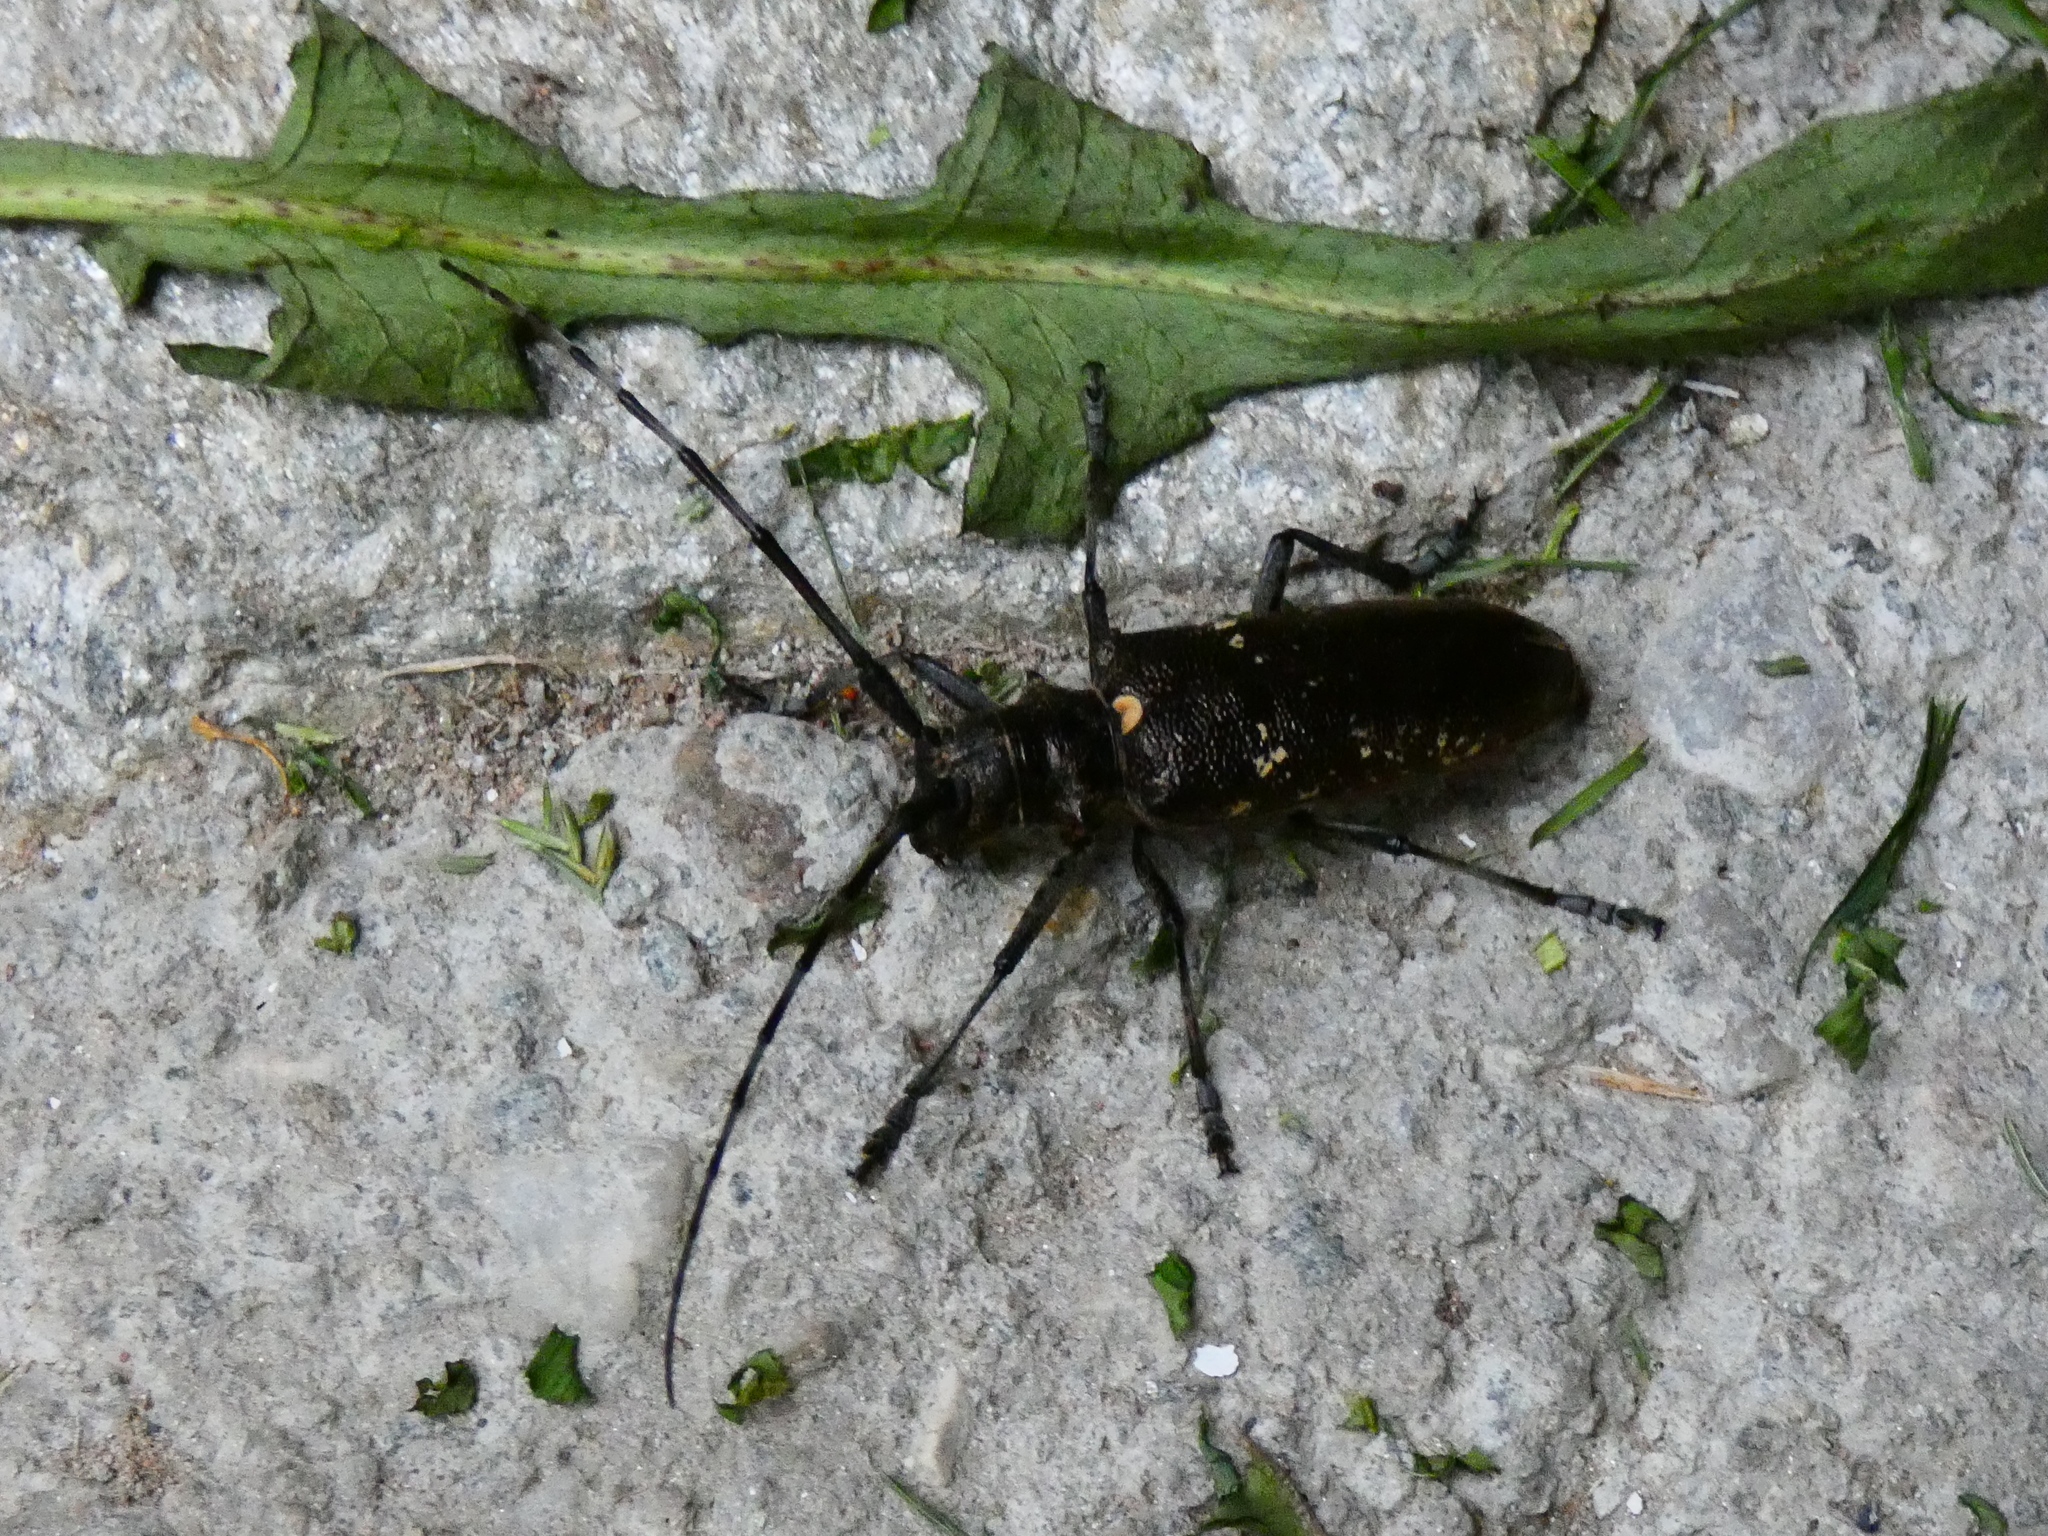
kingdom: Animalia
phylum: Arthropoda
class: Insecta
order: Coleoptera
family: Cerambycidae
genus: Monochamus
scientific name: Monochamus sartor
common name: Pine sawyer
